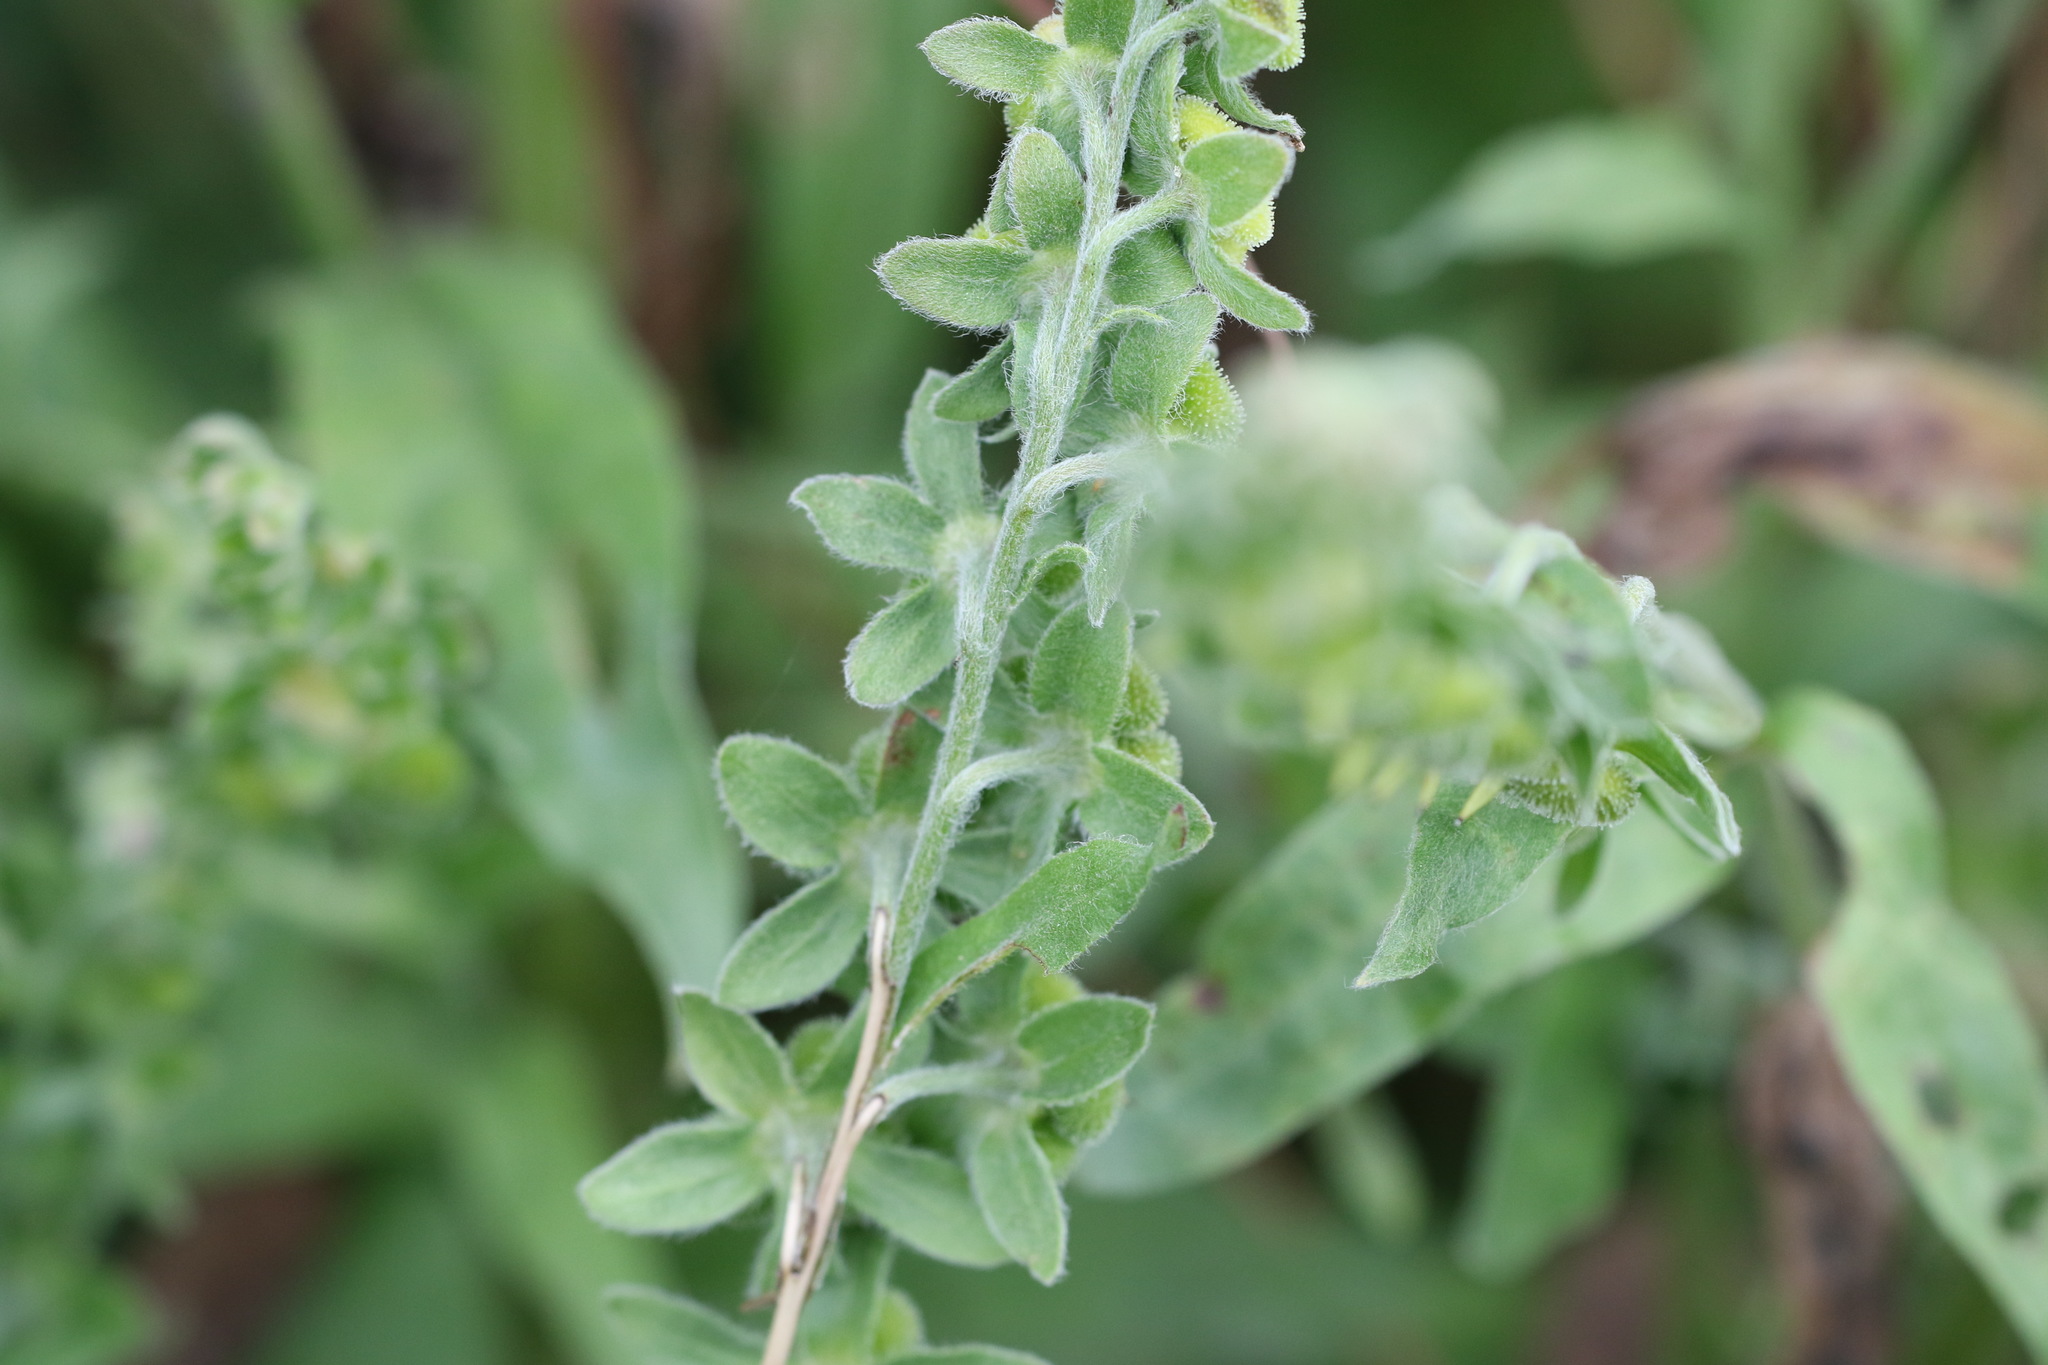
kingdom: Plantae
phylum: Tracheophyta
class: Magnoliopsida
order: Boraginales
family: Boraginaceae
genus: Cynoglossum
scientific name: Cynoglossum officinale
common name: Hound's-tongue
